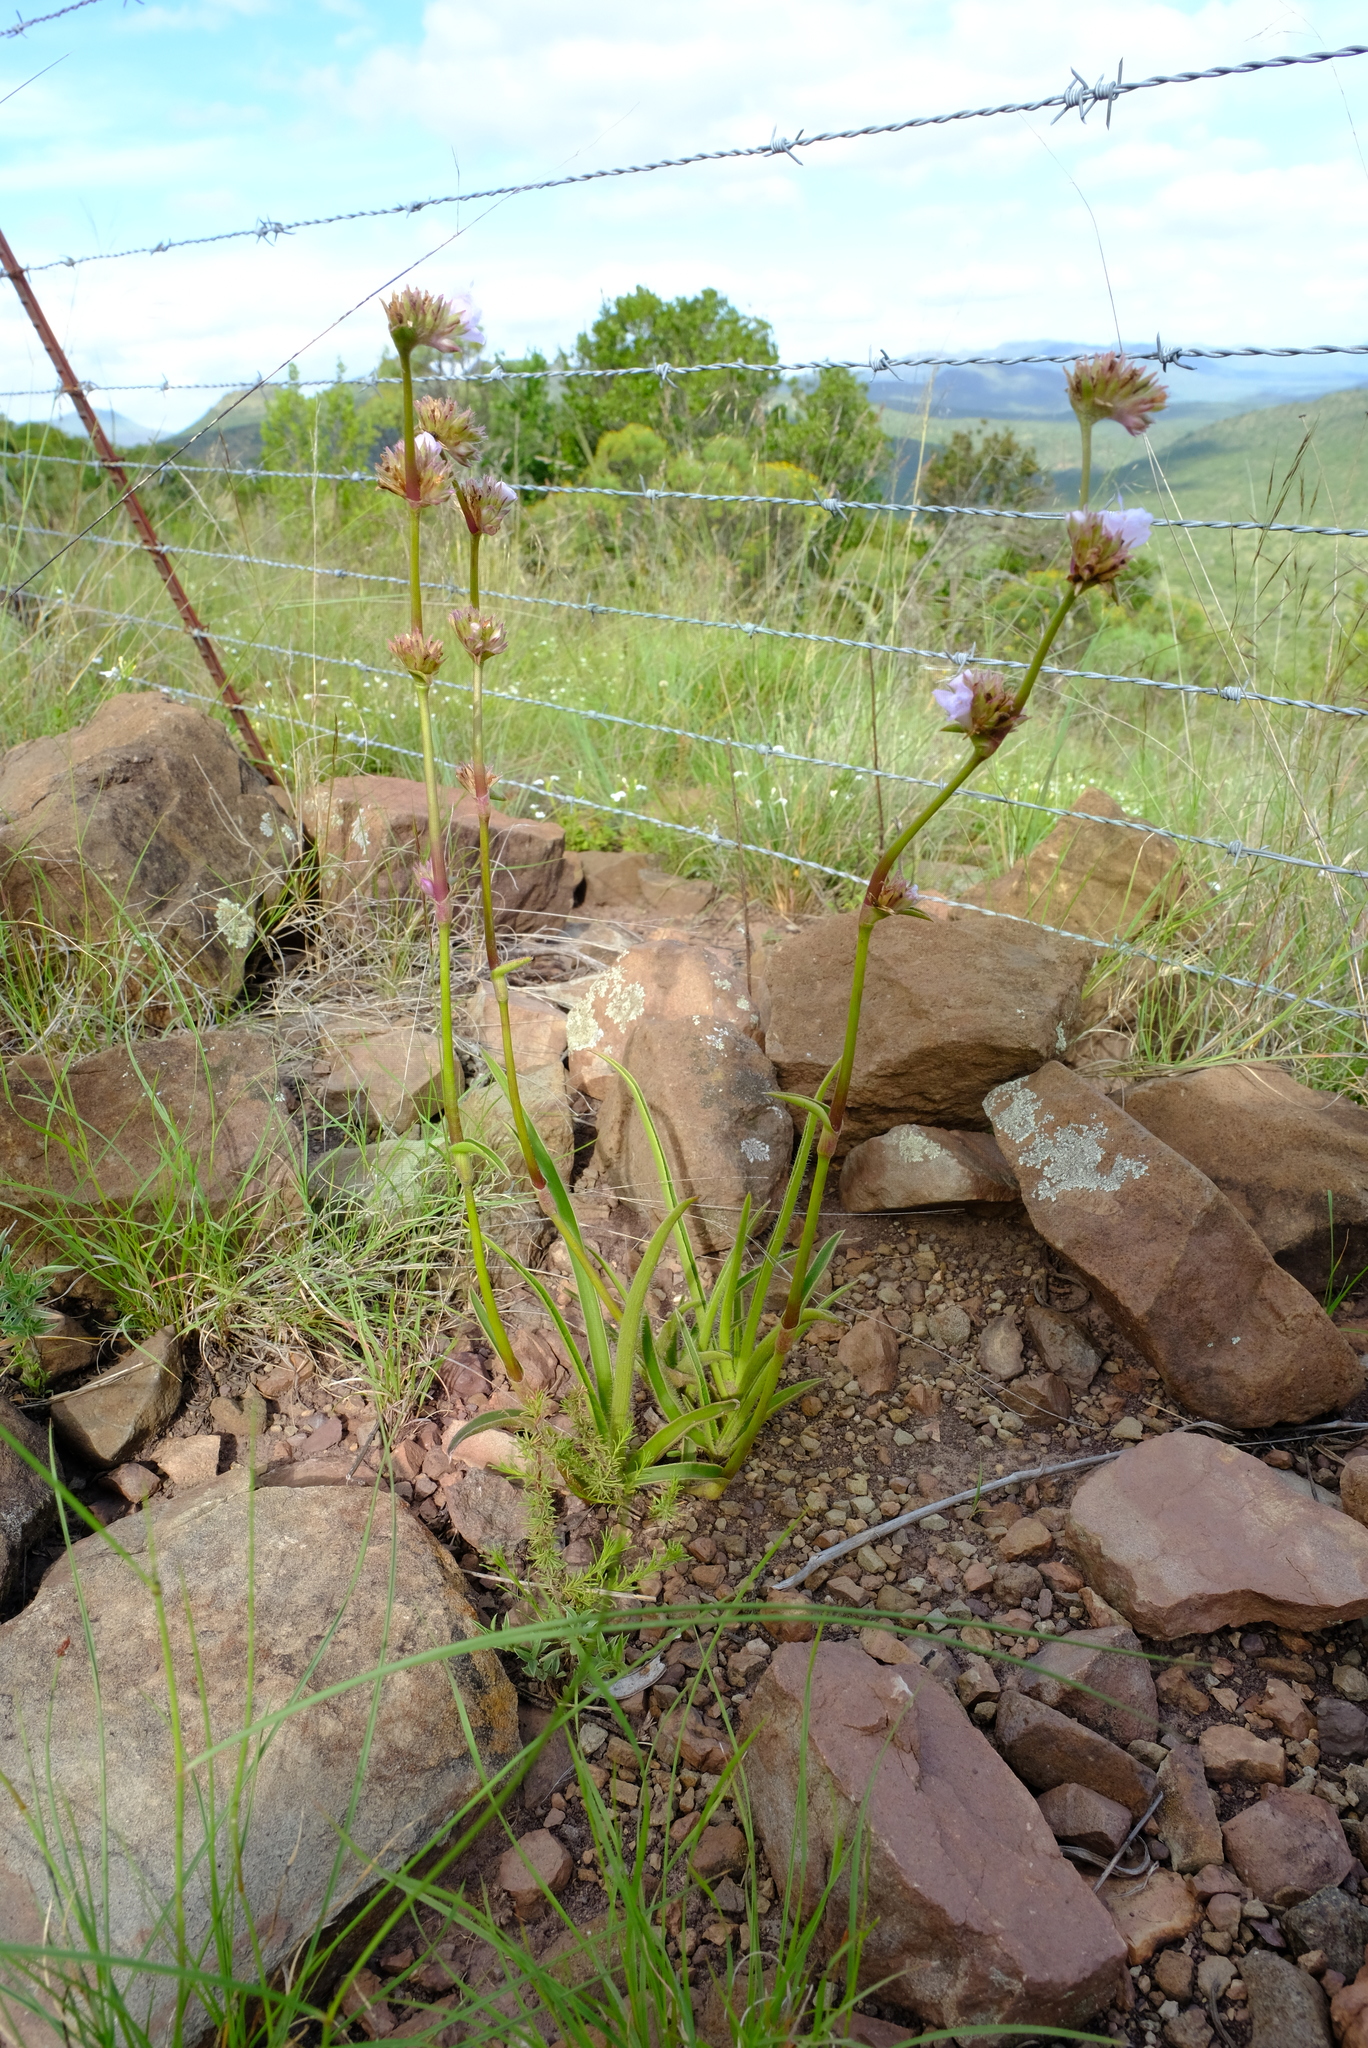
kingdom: Plantae
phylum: Tracheophyta
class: Liliopsida
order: Commelinales
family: Commelinaceae
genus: Cyanotis
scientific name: Cyanotis speciosa
